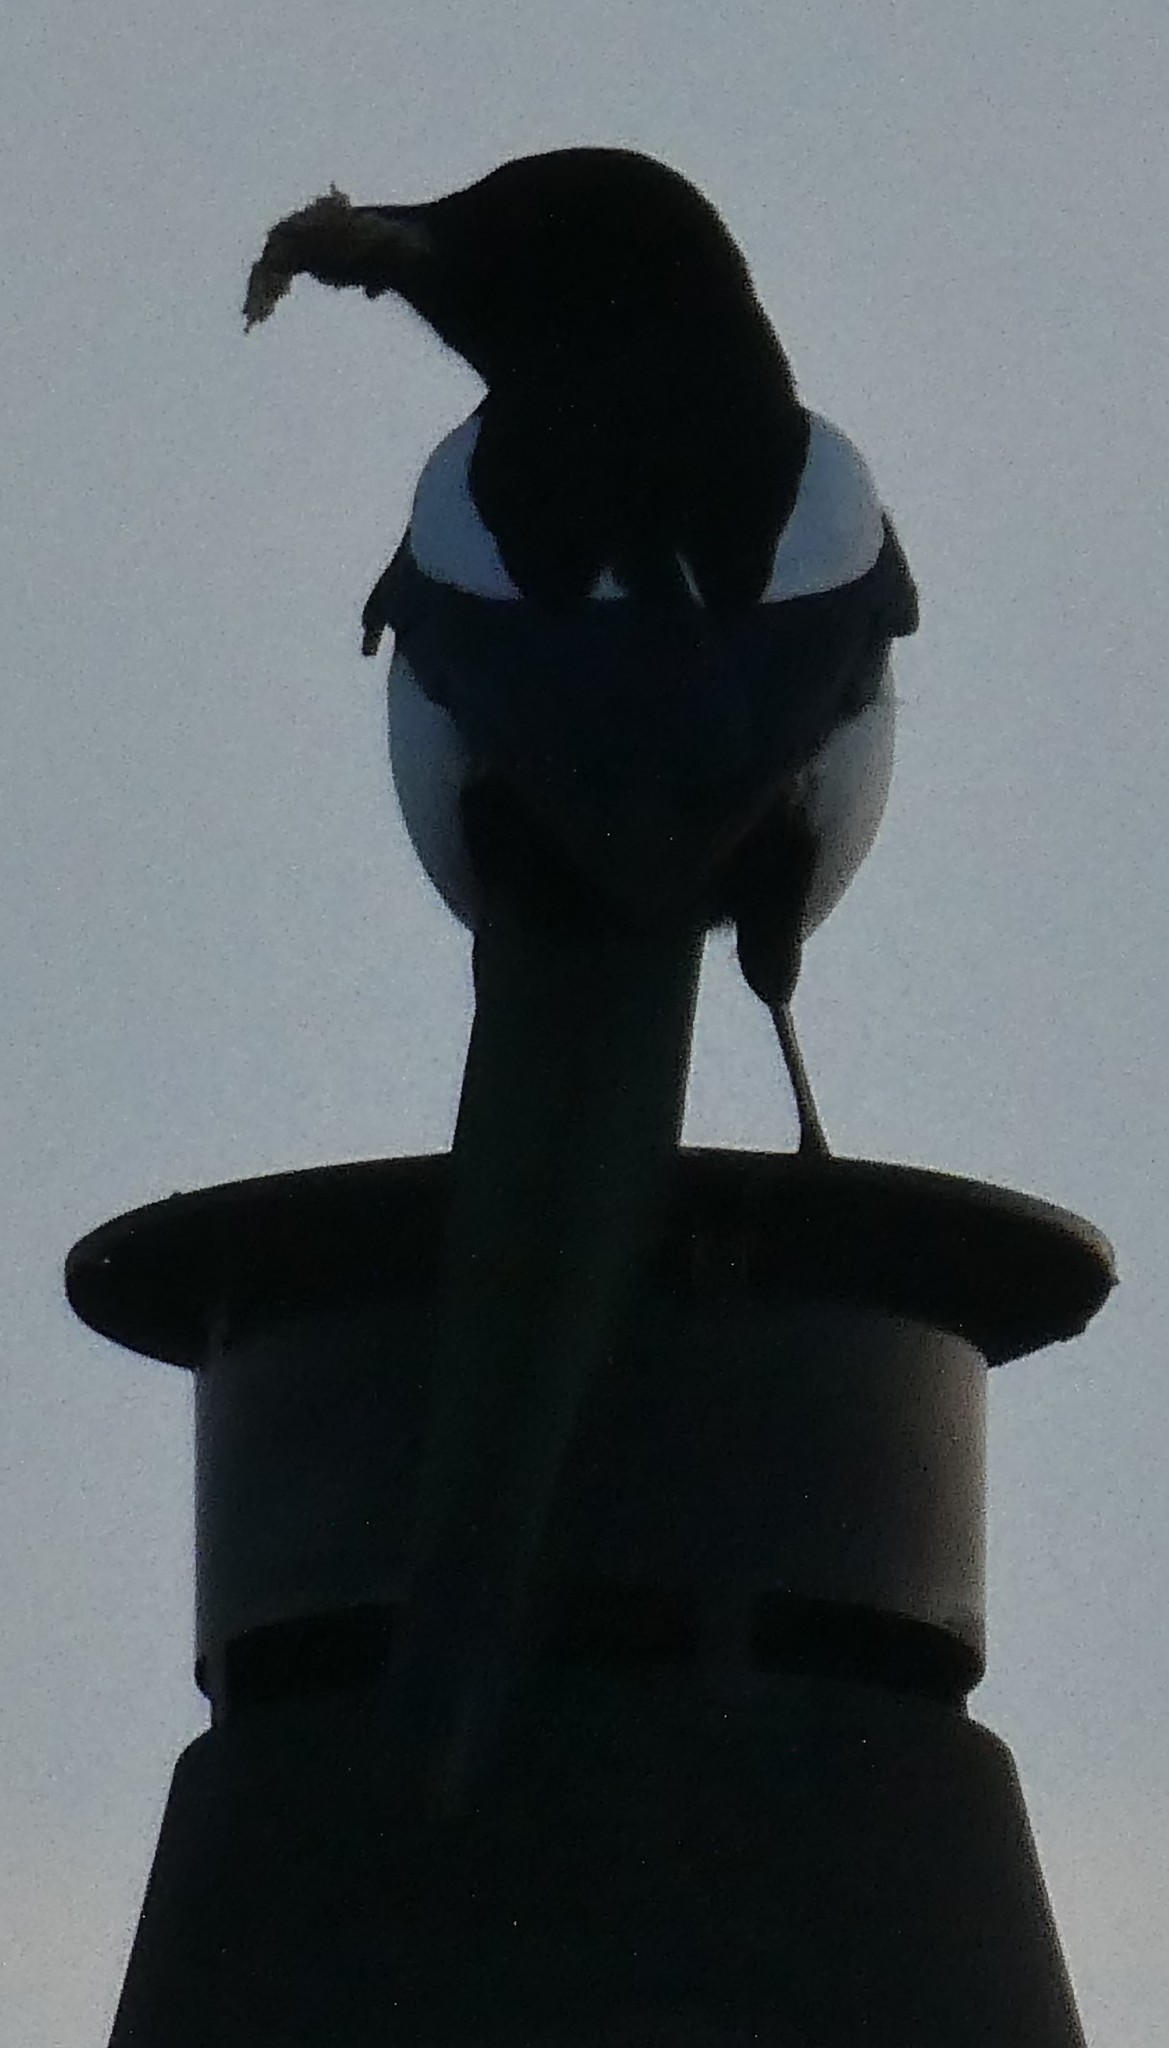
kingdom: Animalia
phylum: Chordata
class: Aves
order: Passeriformes
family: Corvidae
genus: Pica
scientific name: Pica pica
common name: Eurasian magpie
